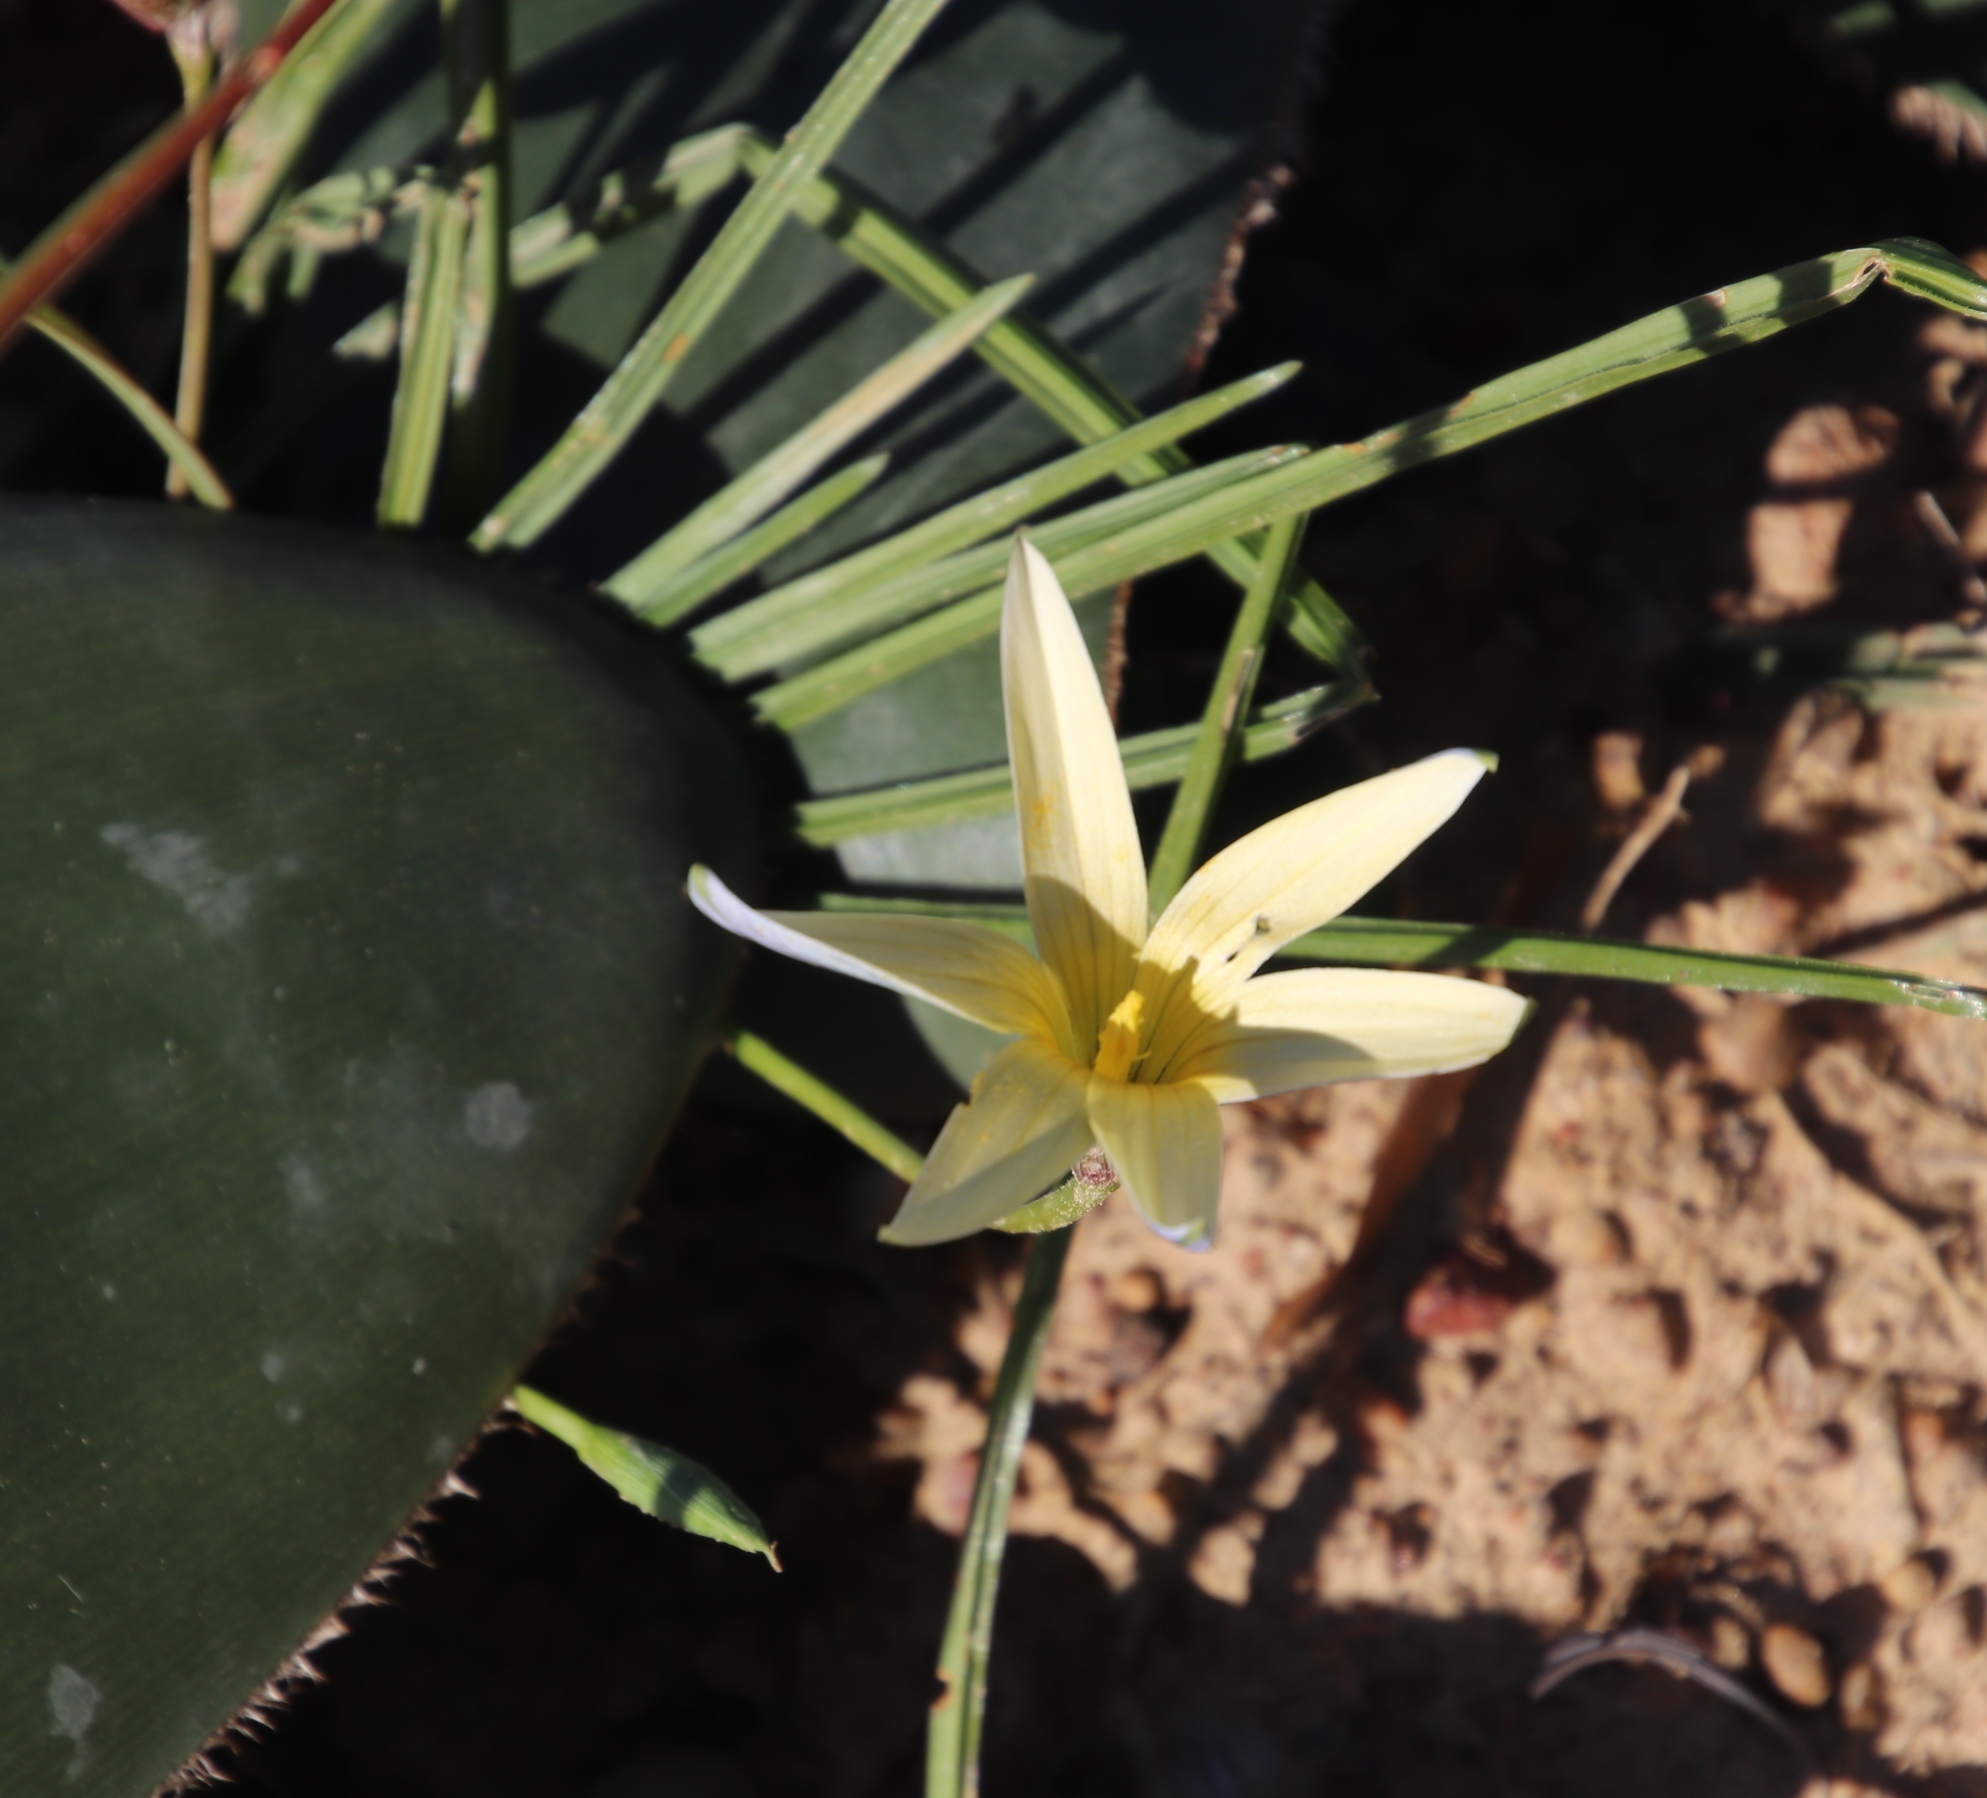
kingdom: Plantae
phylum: Tracheophyta
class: Liliopsida
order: Asparagales
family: Iridaceae
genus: Romulea
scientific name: Romulea hirta
